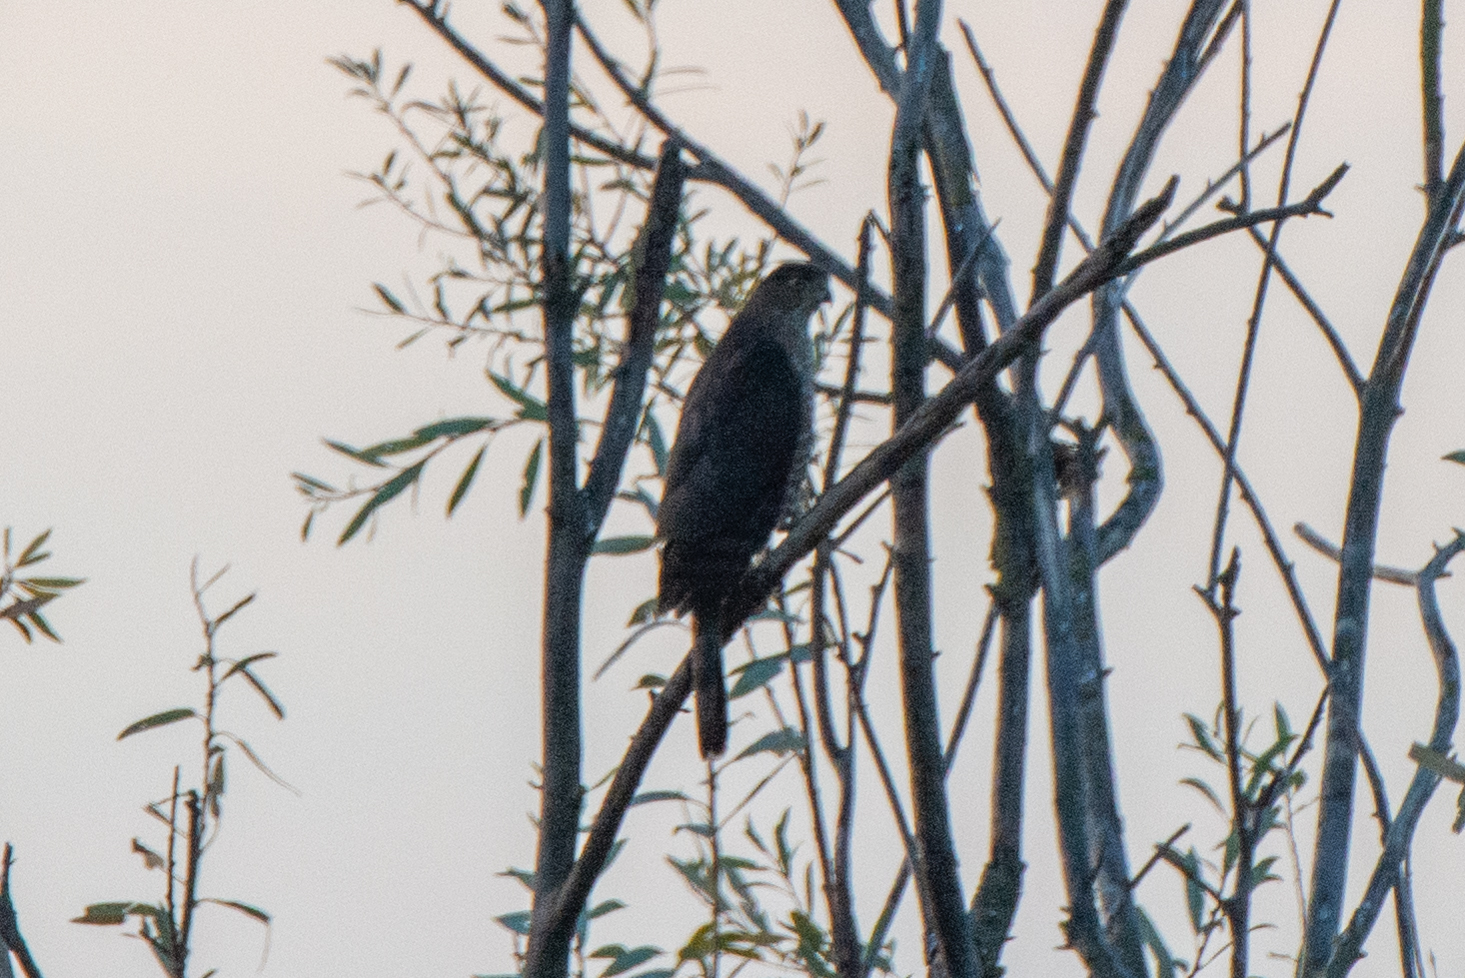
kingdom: Animalia
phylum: Chordata
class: Aves
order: Accipitriformes
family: Accipitridae
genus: Accipiter
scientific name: Accipiter cooperii
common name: Cooper's hawk
